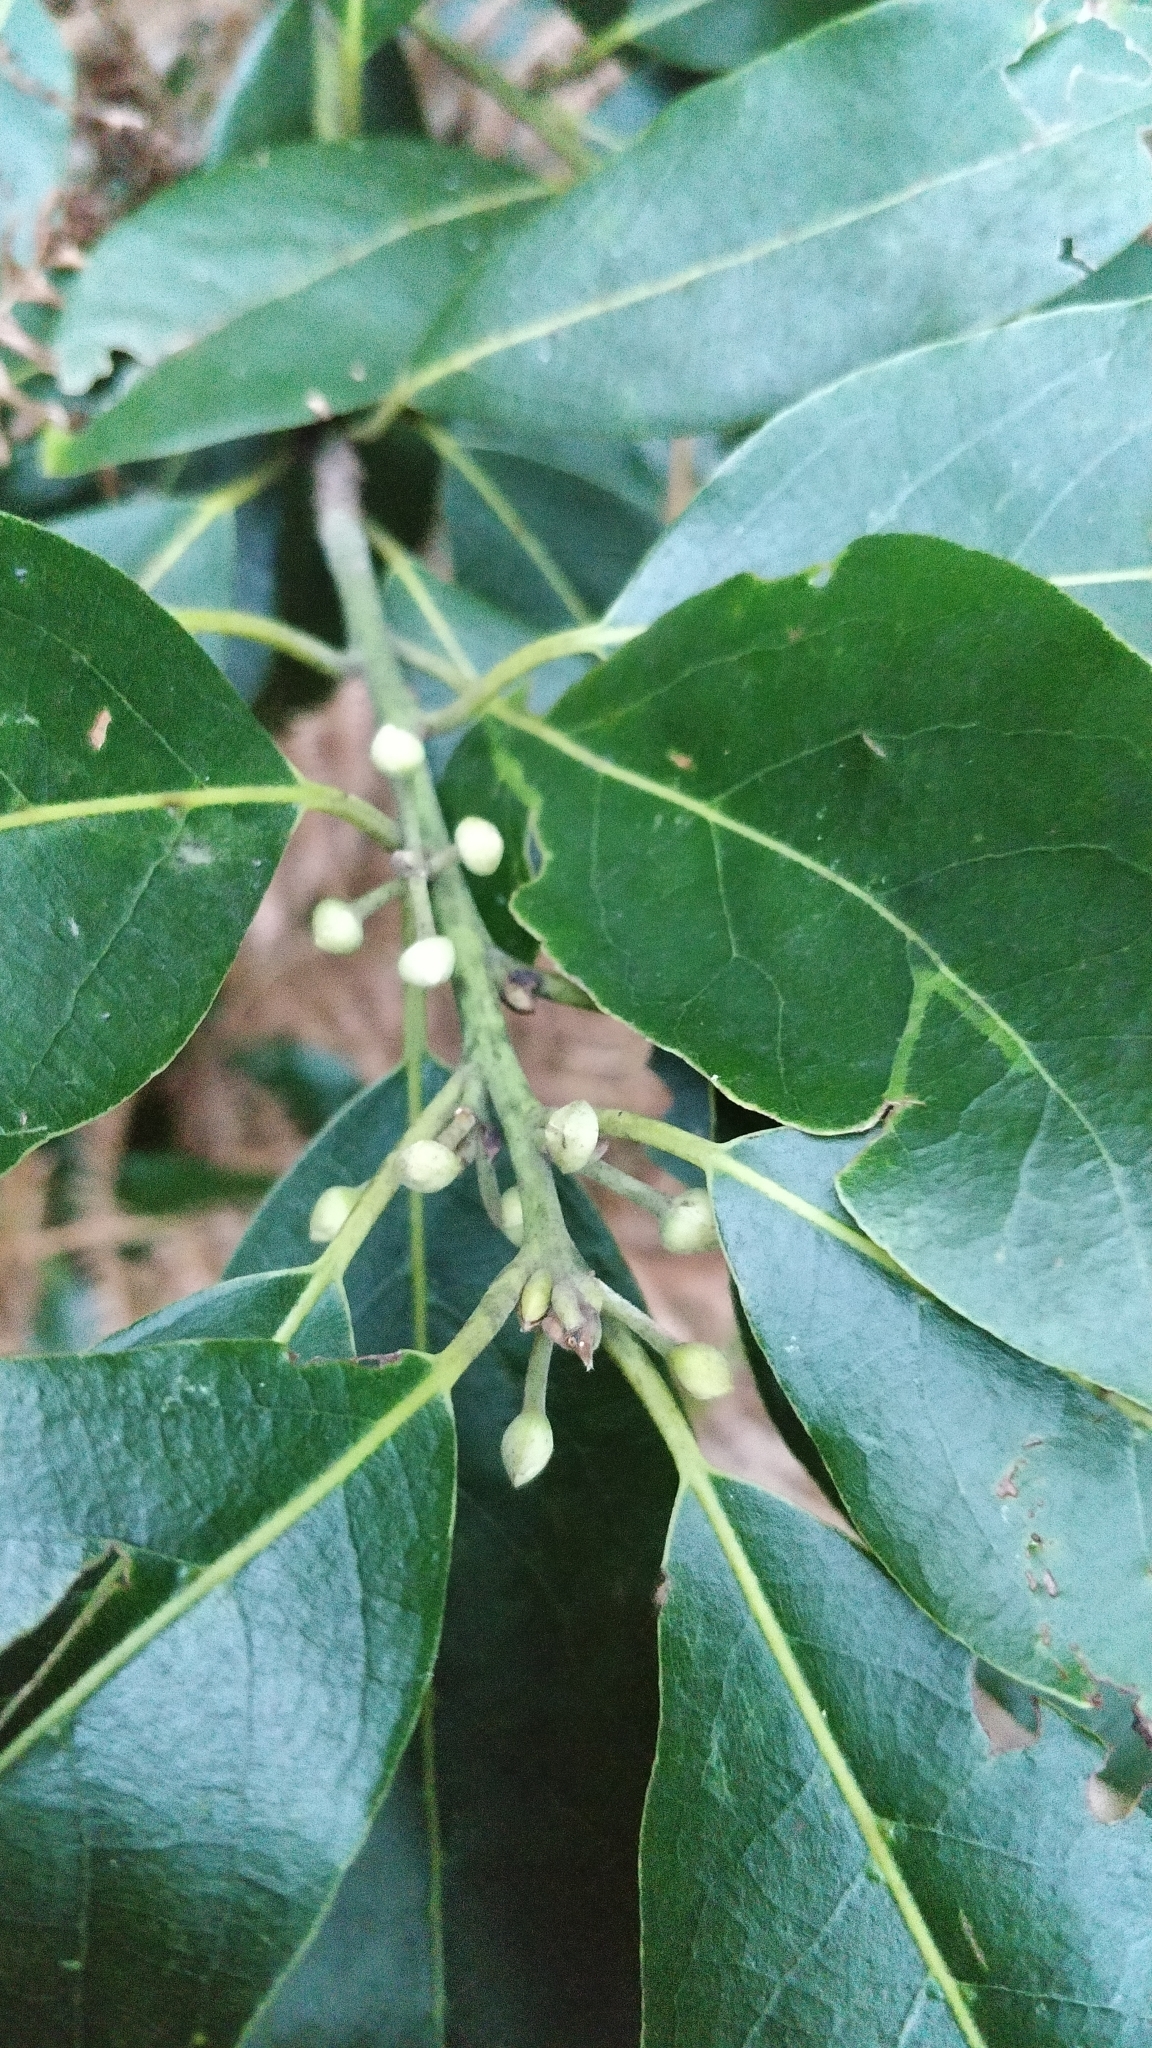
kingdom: Plantae
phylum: Tracheophyta
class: Magnoliopsida
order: Laurales
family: Lauraceae
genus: Laurus
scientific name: Laurus novocanariensis
